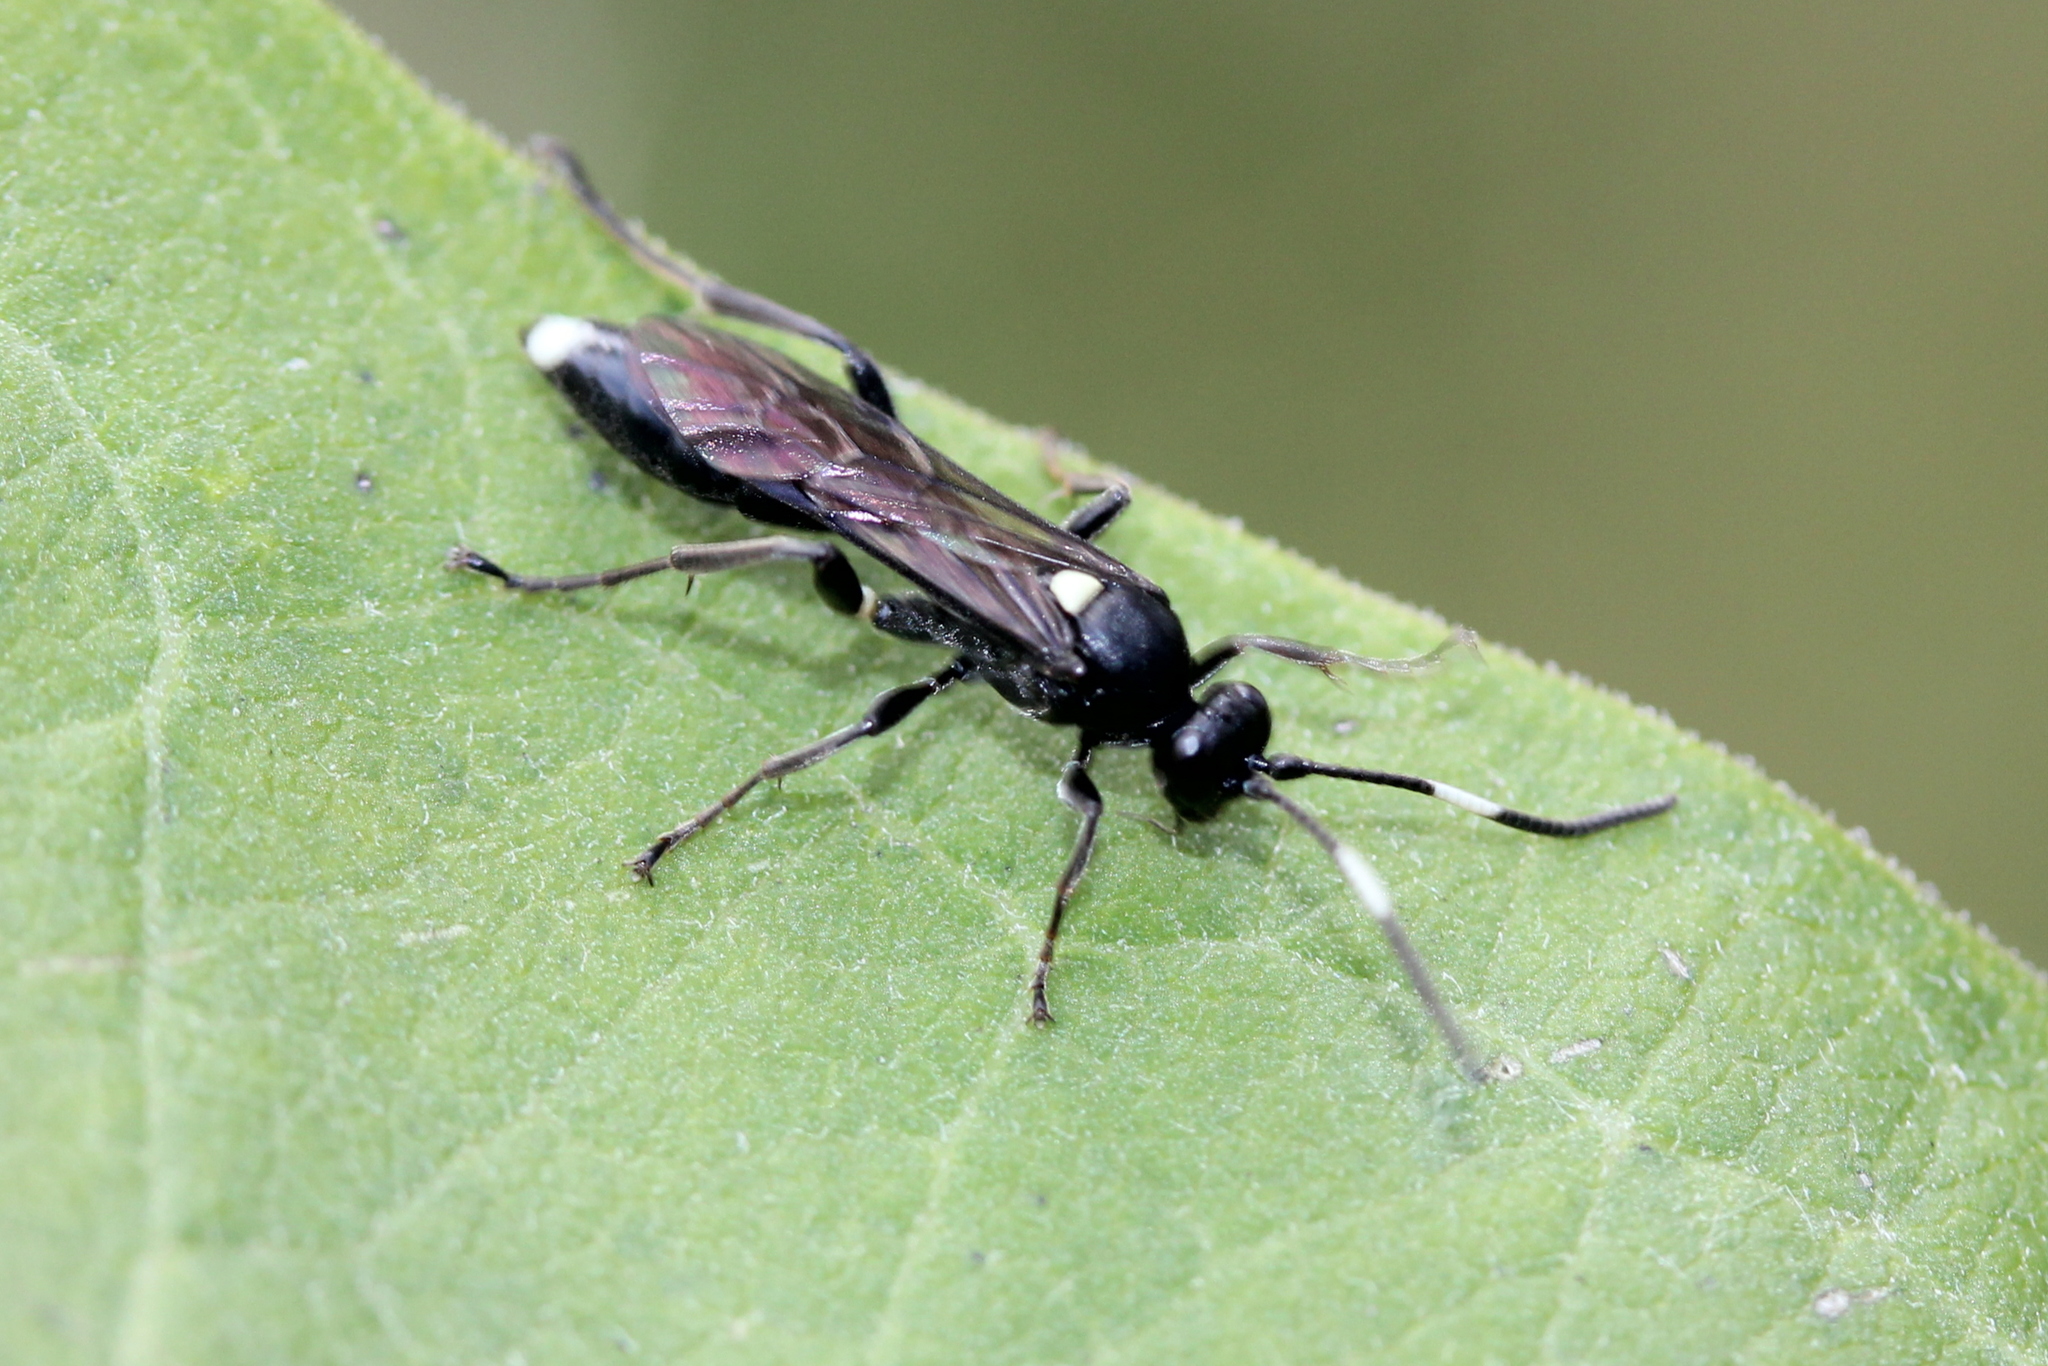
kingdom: Animalia
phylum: Arthropoda
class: Insecta
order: Hymenoptera
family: Ichneumonidae
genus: Vulgichneumon
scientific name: Vulgichneumon brevicinctor
